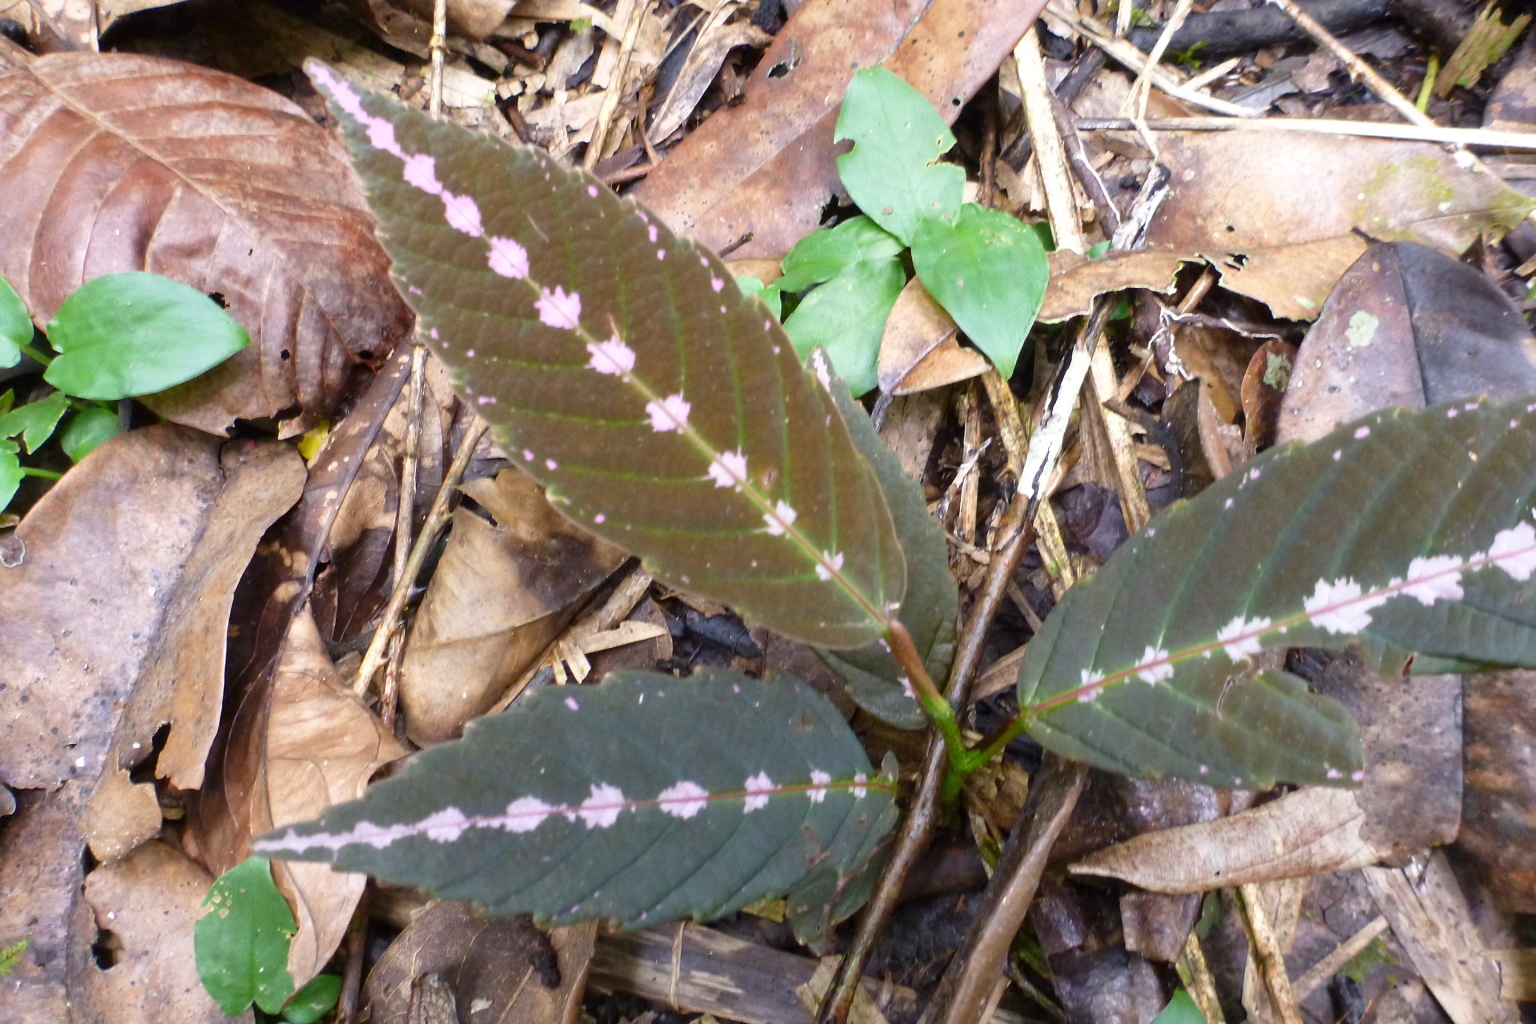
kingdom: Plantae
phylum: Tracheophyta
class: Magnoliopsida
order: Vitales
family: Vitaceae
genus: Leea
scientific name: Leea zippeliana
